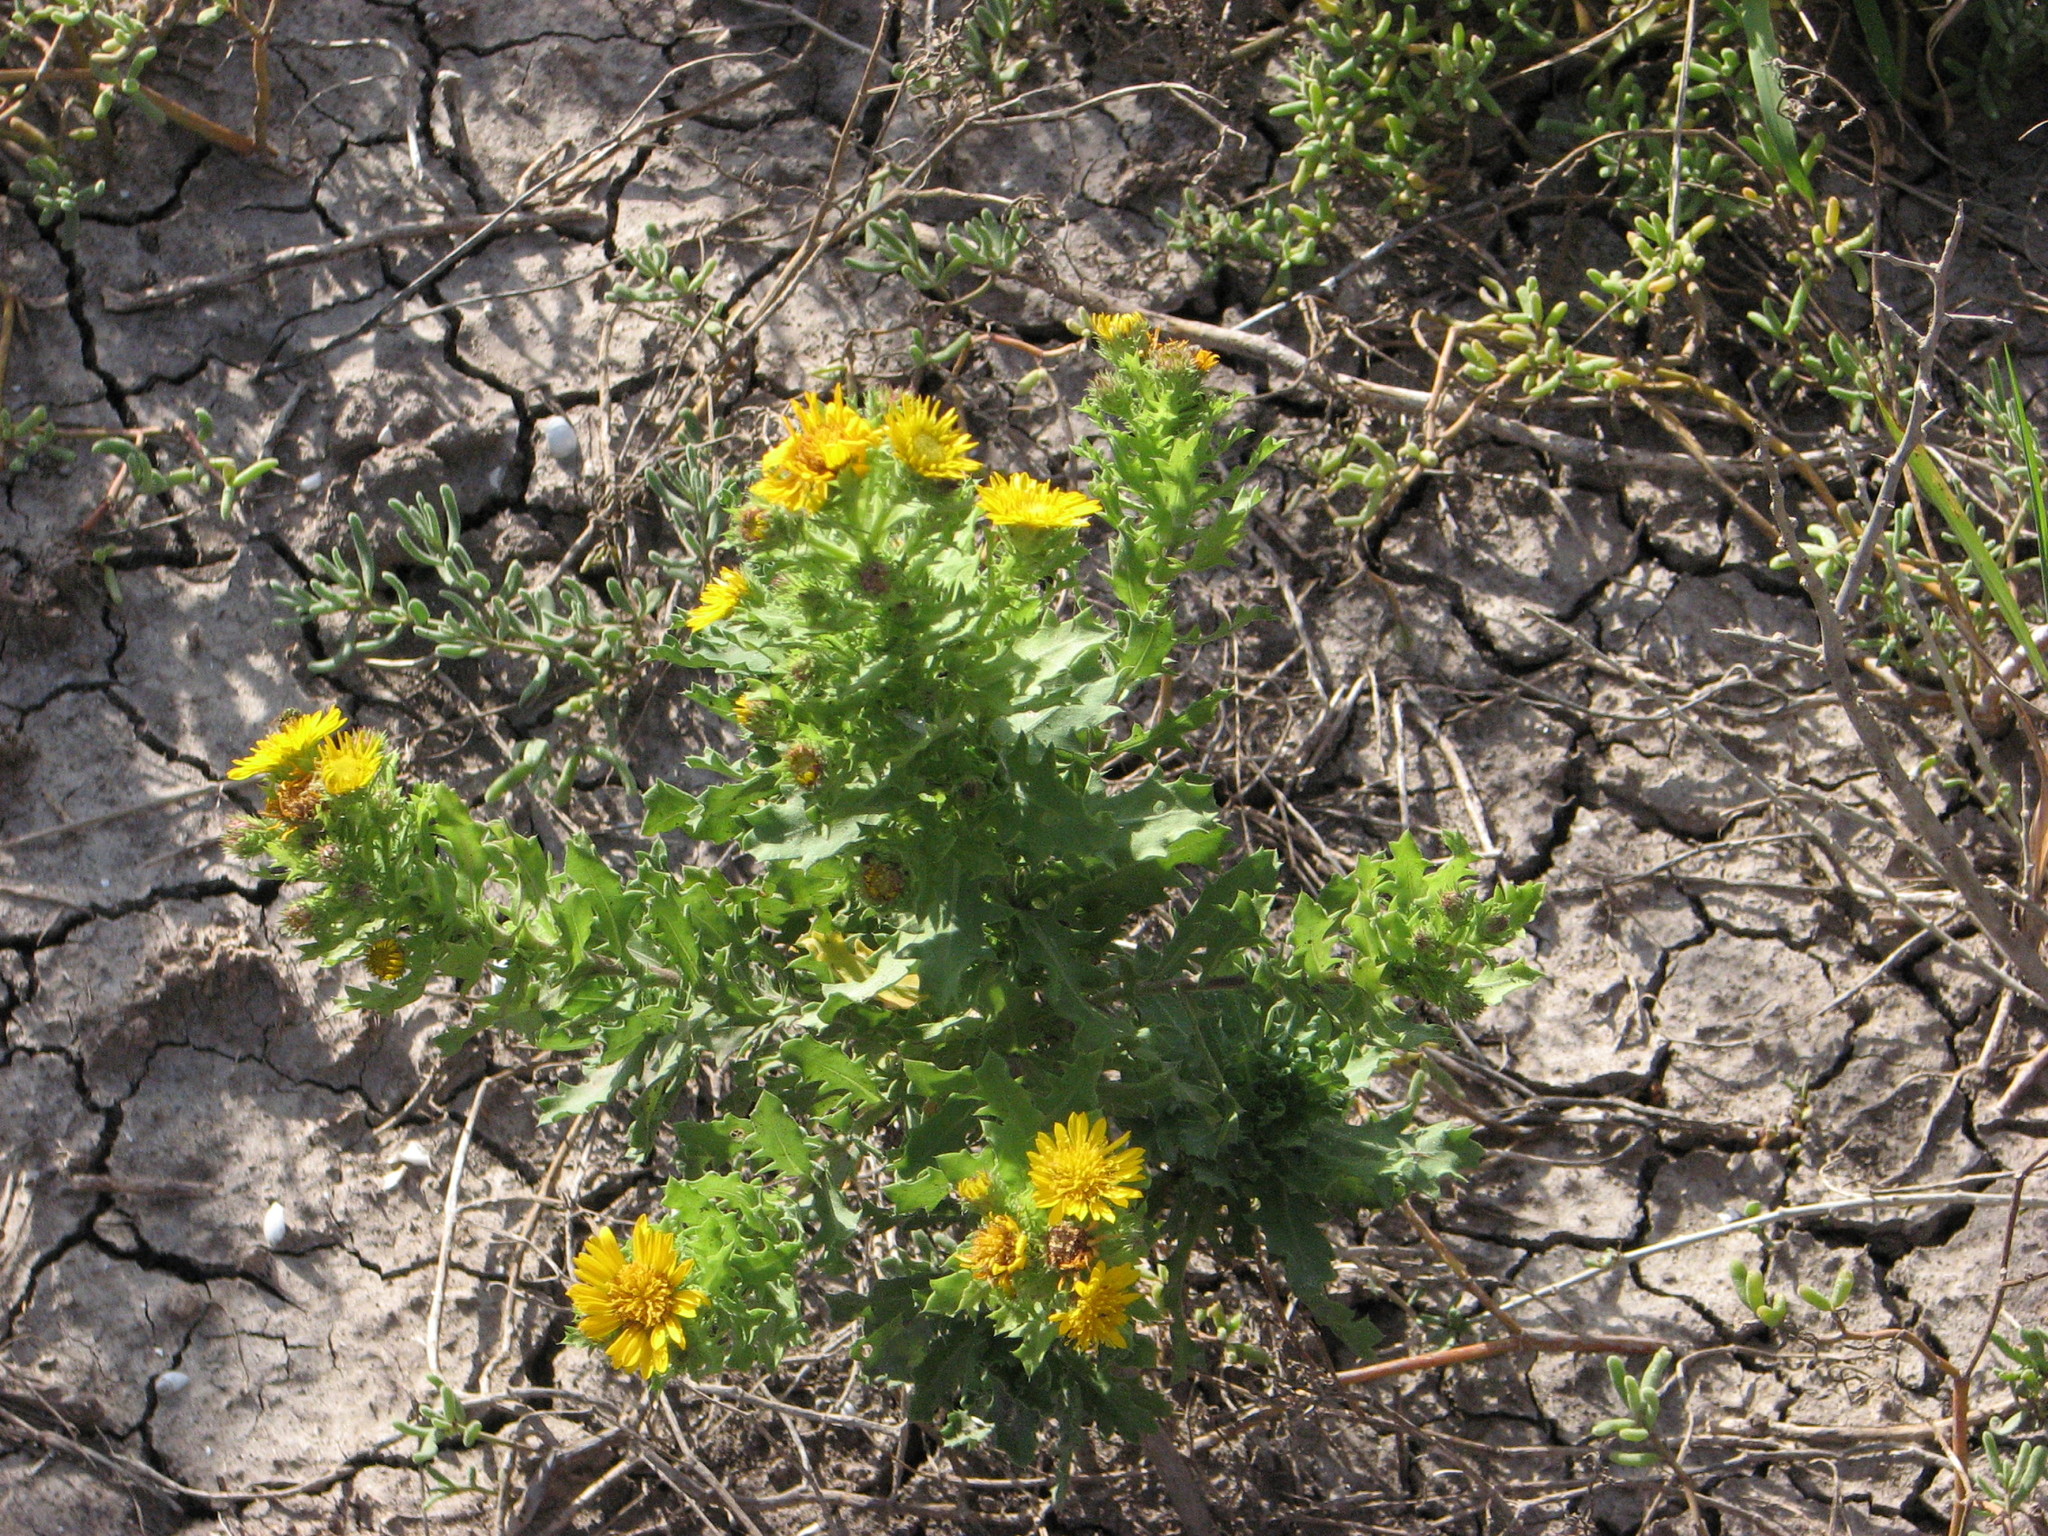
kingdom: Plantae
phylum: Tracheophyta
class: Magnoliopsida
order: Asterales
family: Asteraceae
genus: Rayjacksonia
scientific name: Rayjacksonia phyllocephala
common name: Gulf coast camphor daisy
